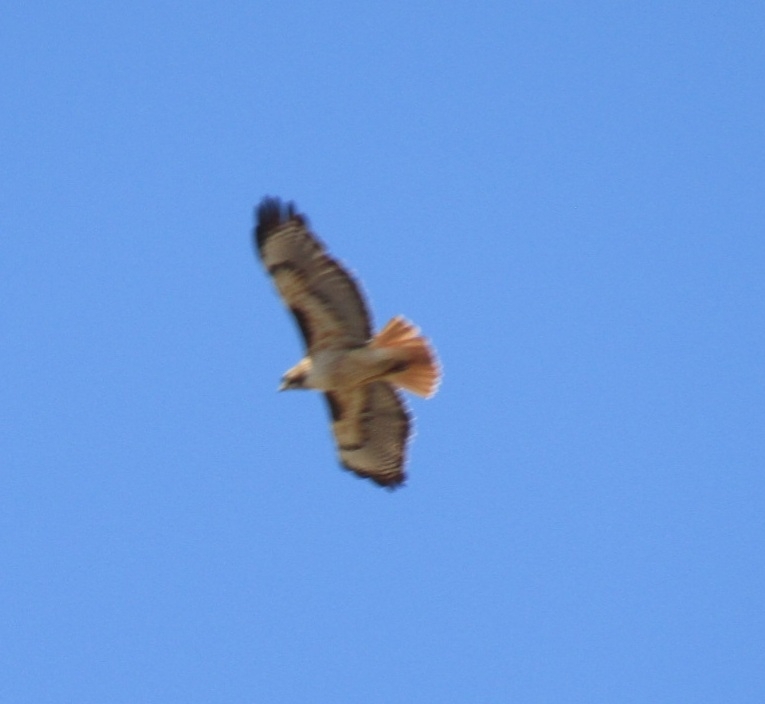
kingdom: Animalia
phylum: Chordata
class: Aves
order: Accipitriformes
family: Accipitridae
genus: Buteo
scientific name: Buteo jamaicensis
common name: Red-tailed hawk
